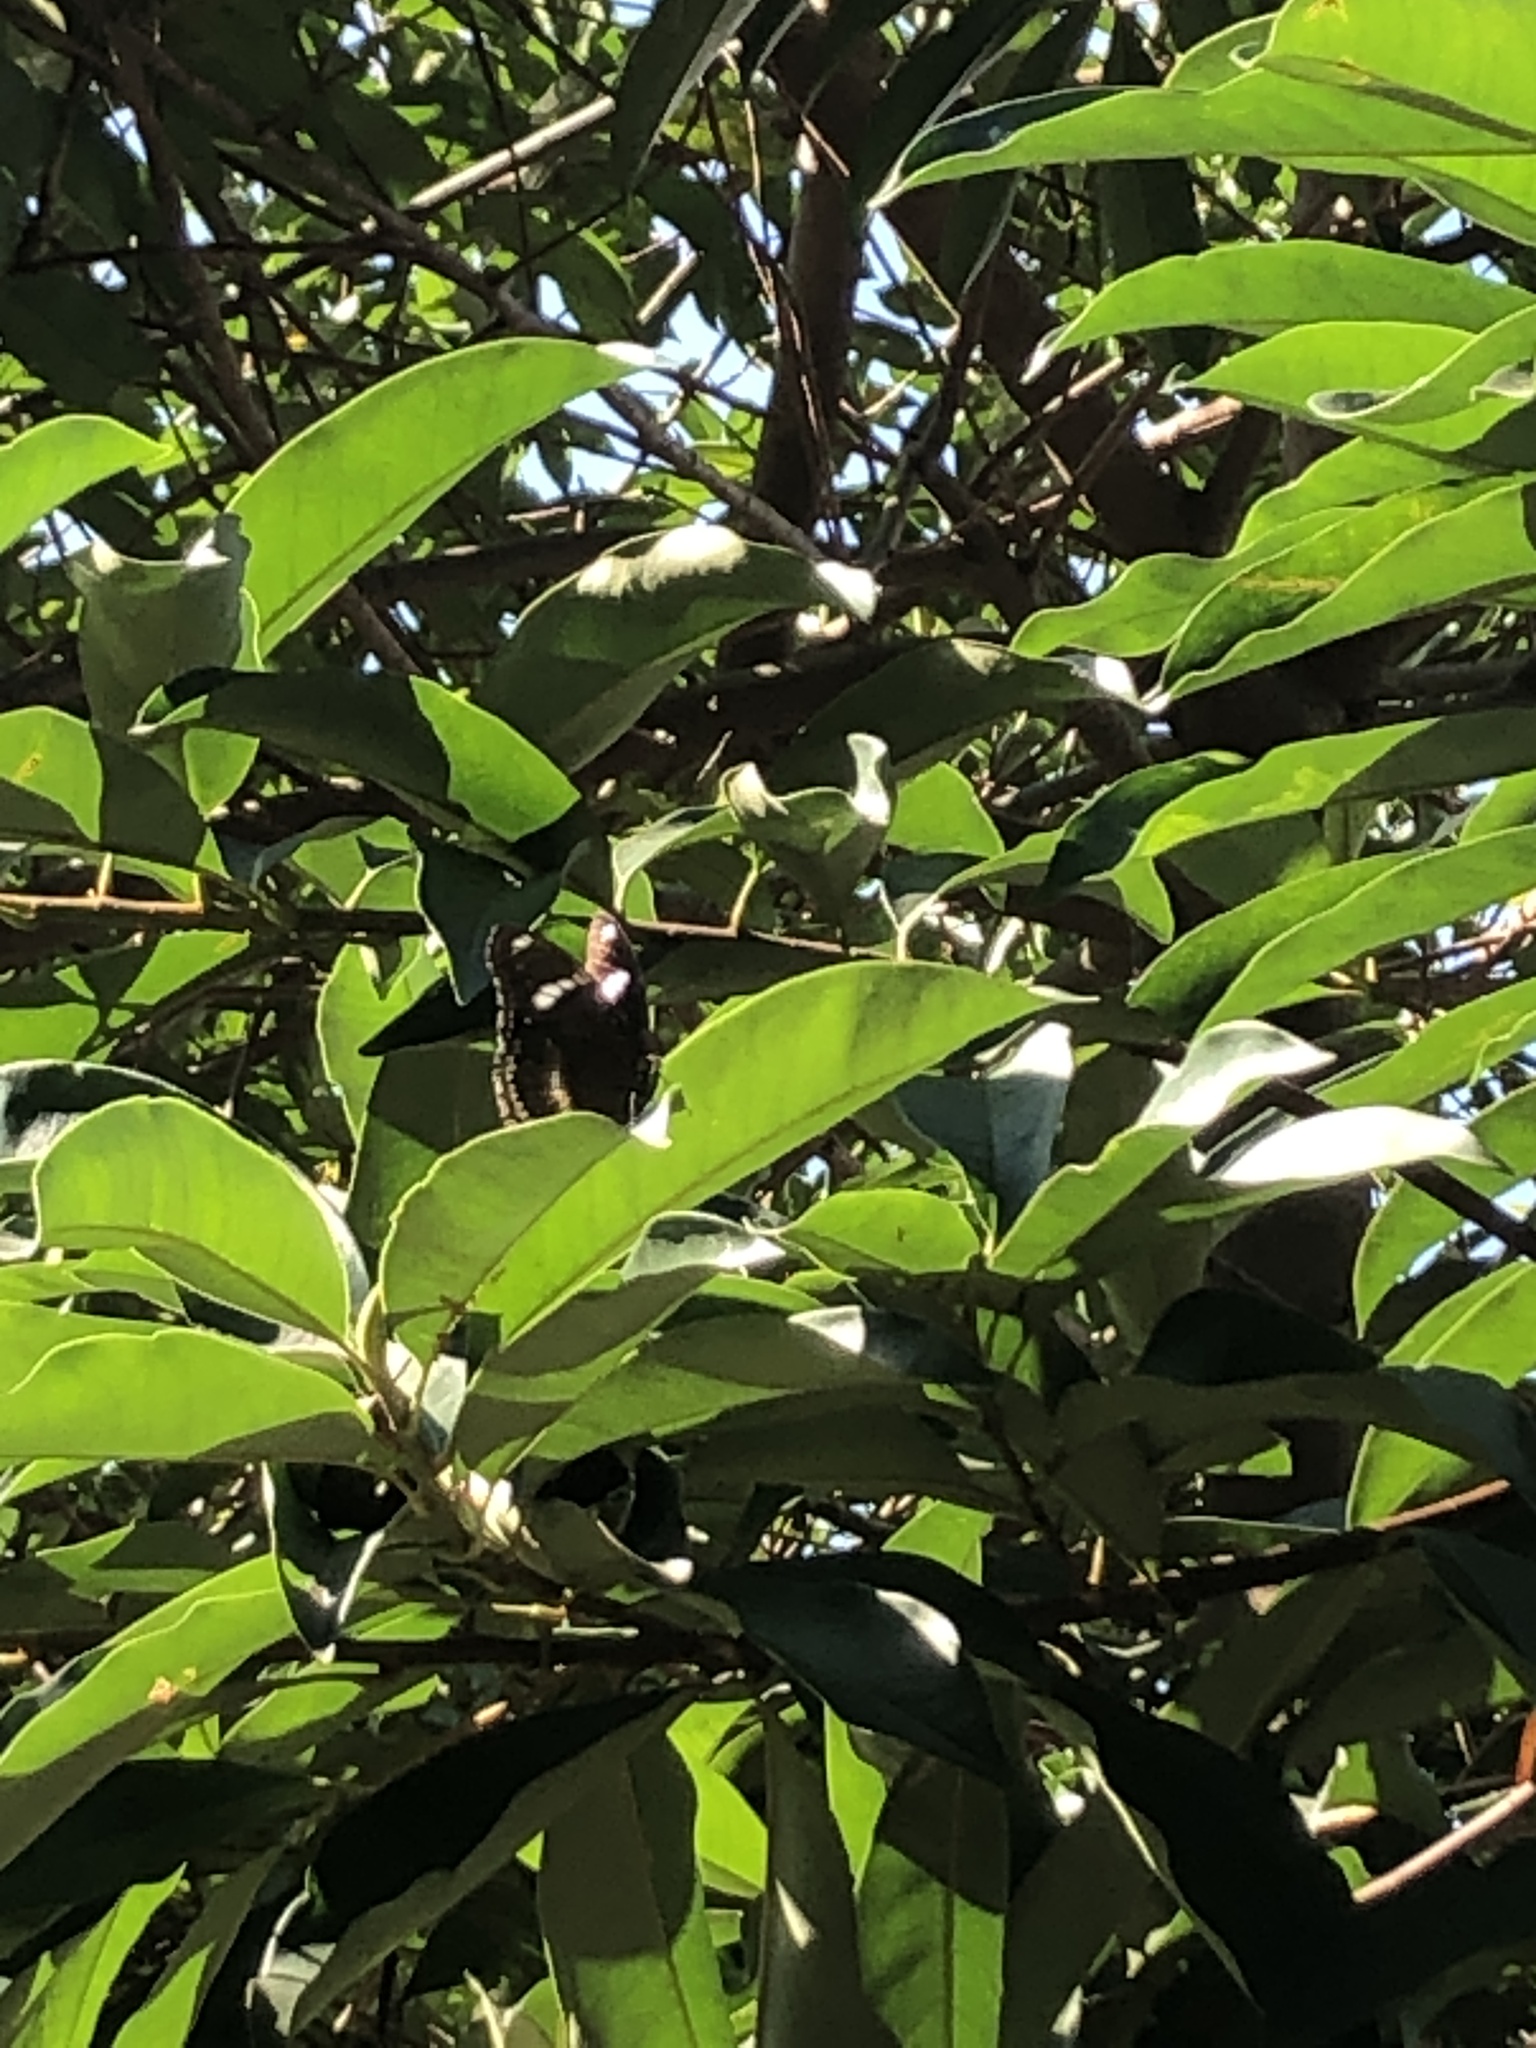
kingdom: Animalia
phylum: Arthropoda
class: Insecta
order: Lepidoptera
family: Nymphalidae
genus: Hypolimnas
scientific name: Hypolimnas bolina
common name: Great eggfly
